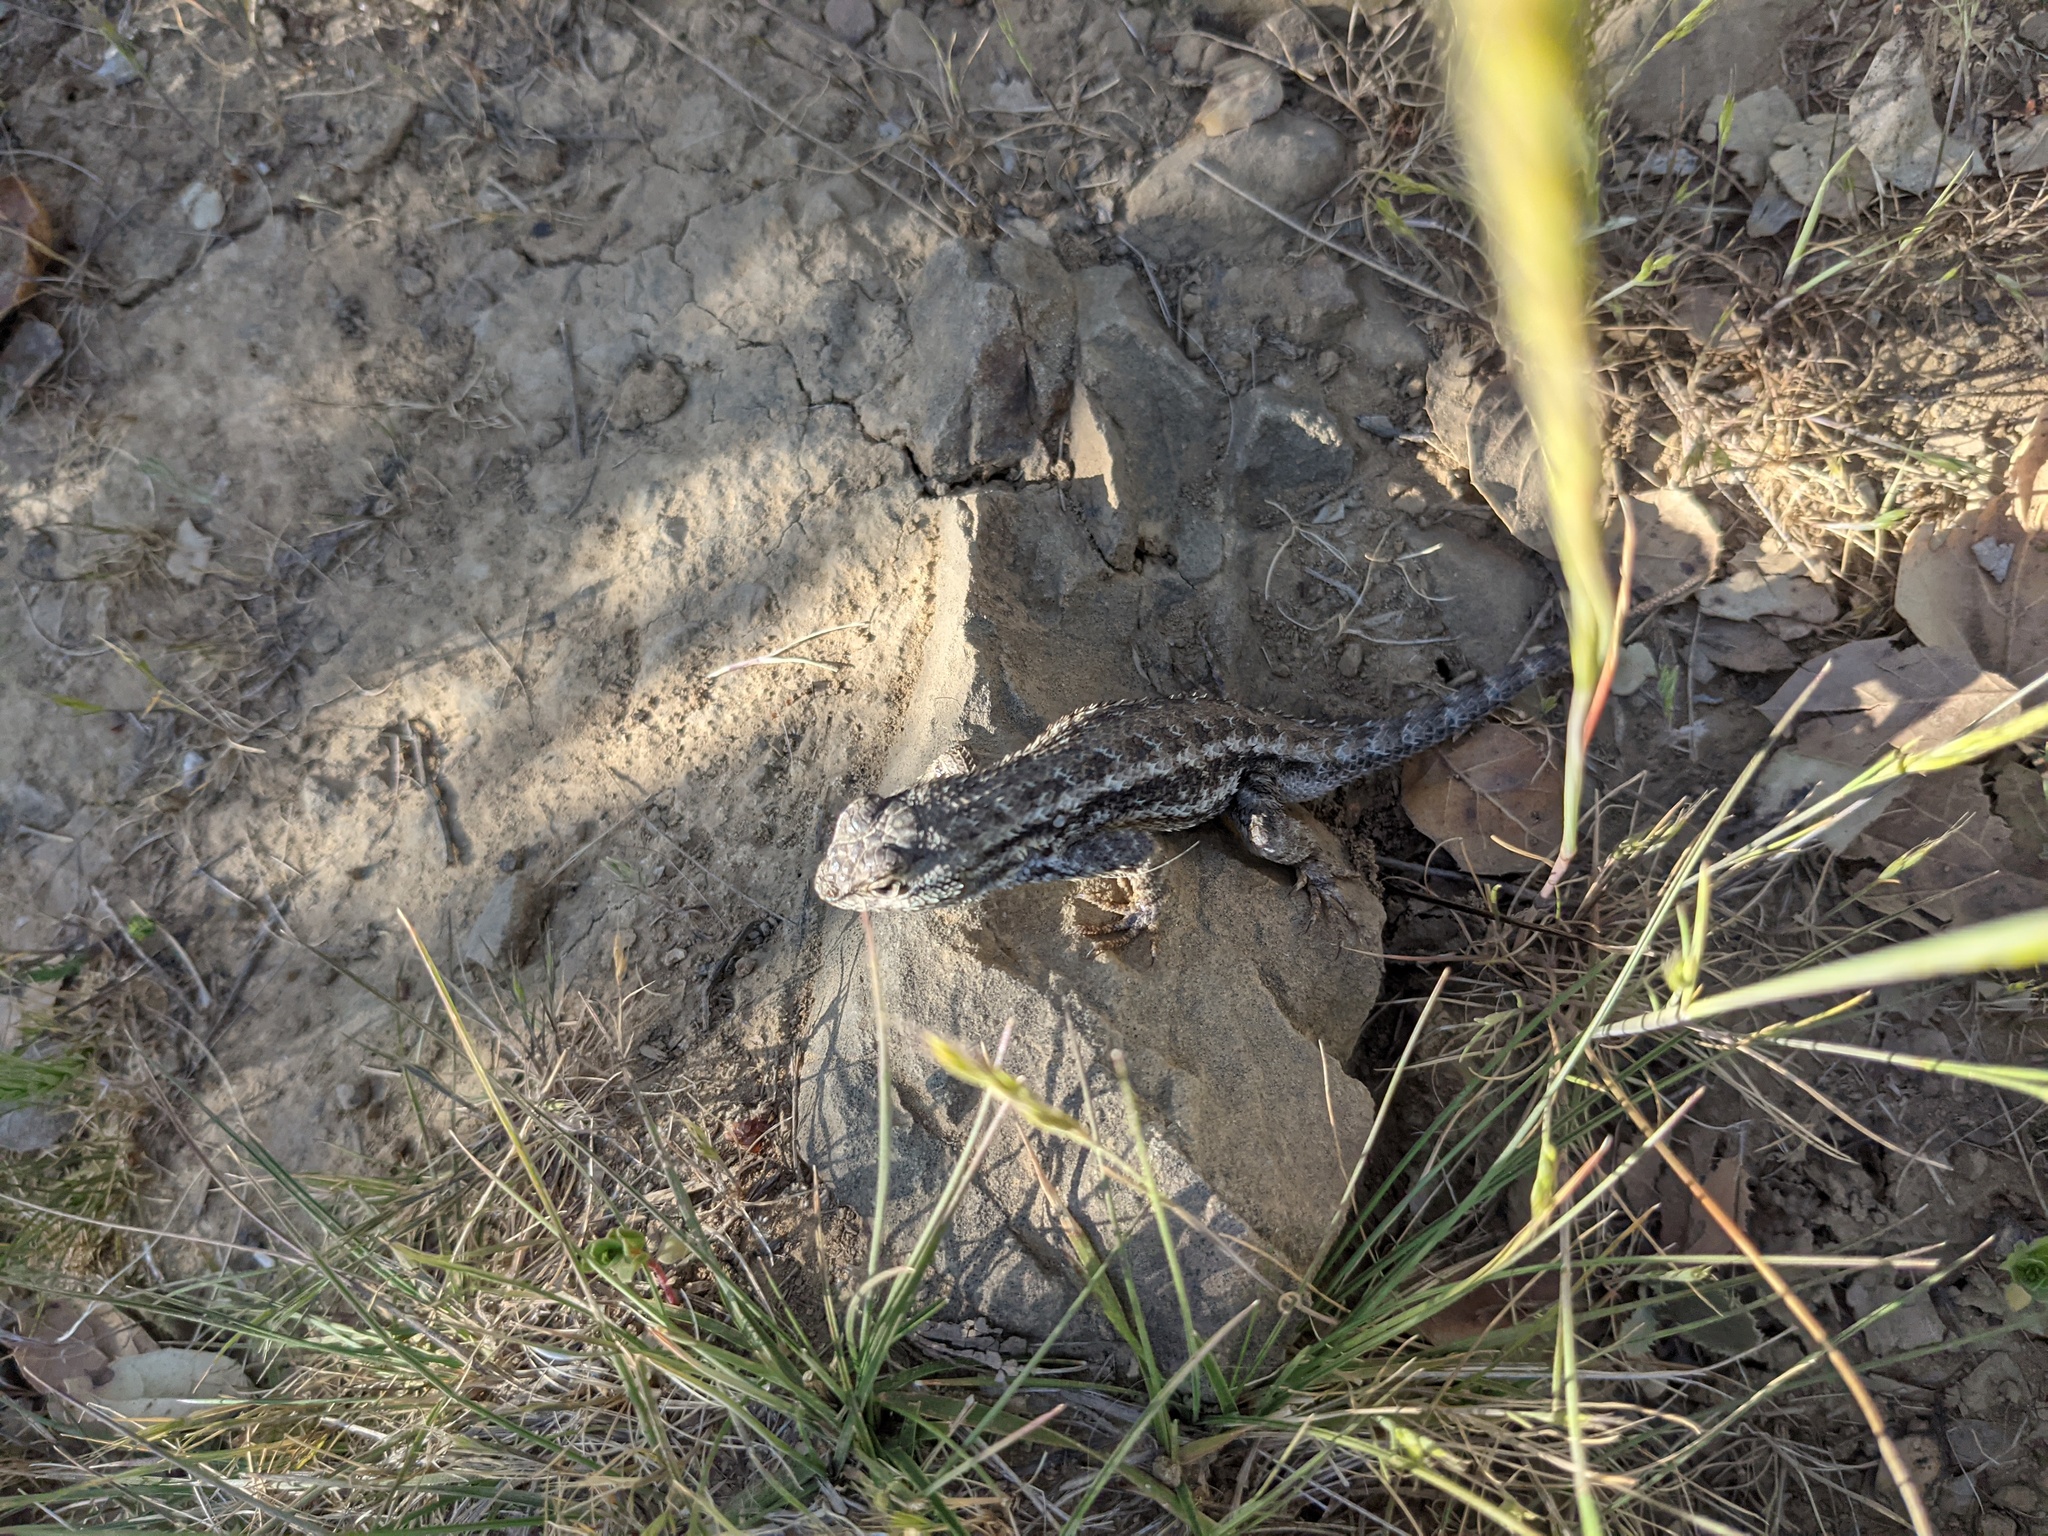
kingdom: Animalia
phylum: Chordata
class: Squamata
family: Phrynosomatidae
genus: Sceloporus
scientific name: Sceloporus occidentalis
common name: Western fence lizard
